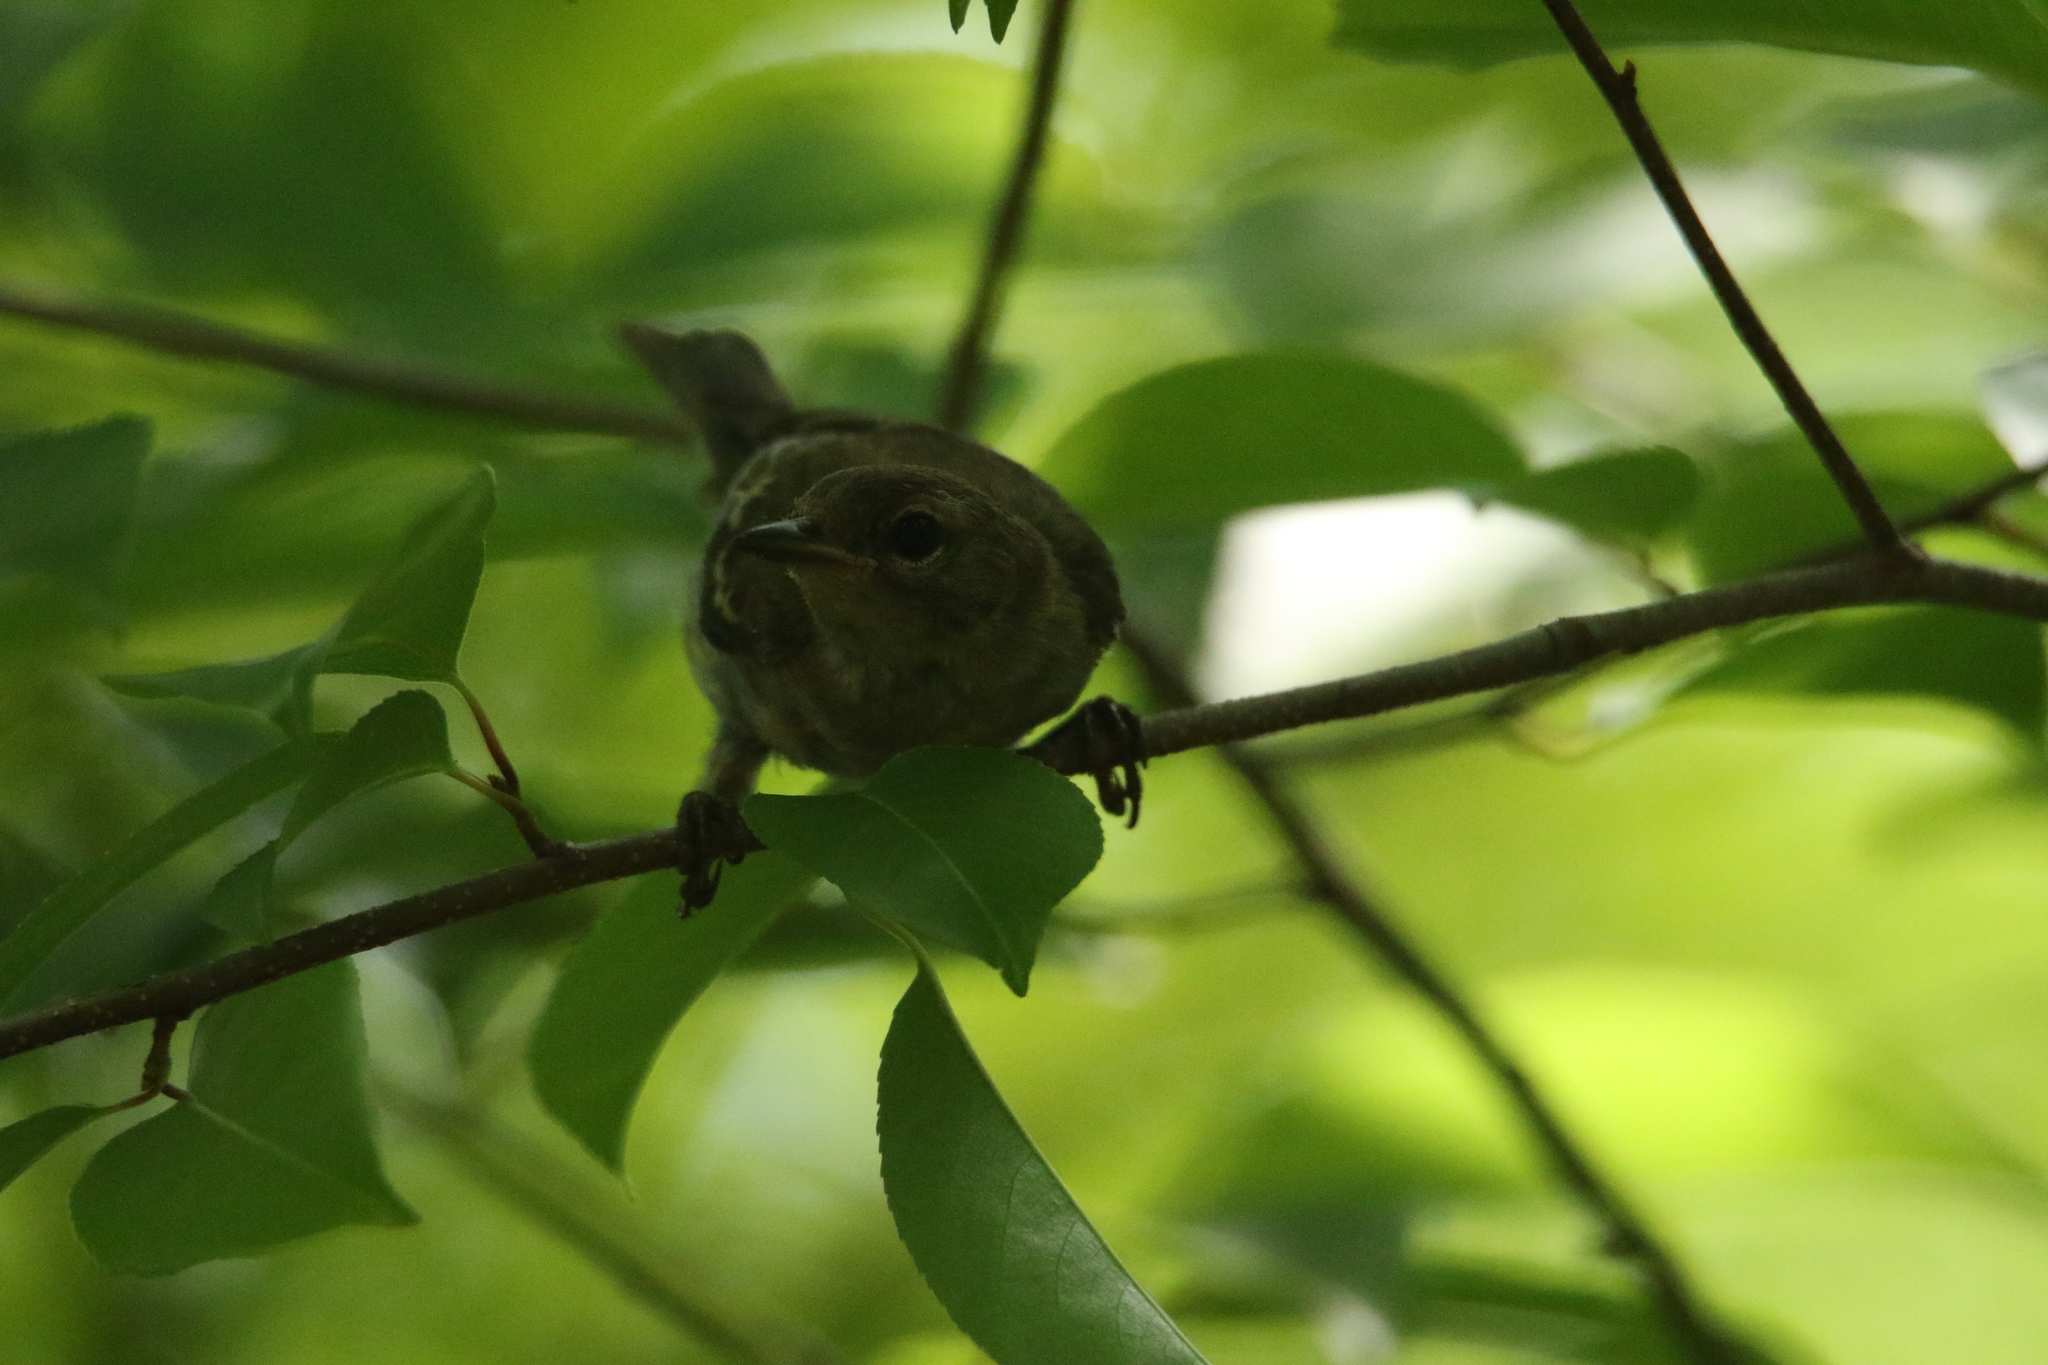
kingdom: Animalia
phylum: Chordata
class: Aves
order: Passeriformes
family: Parulidae
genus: Setophaga
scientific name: Setophaga pinus
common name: Pine warbler
